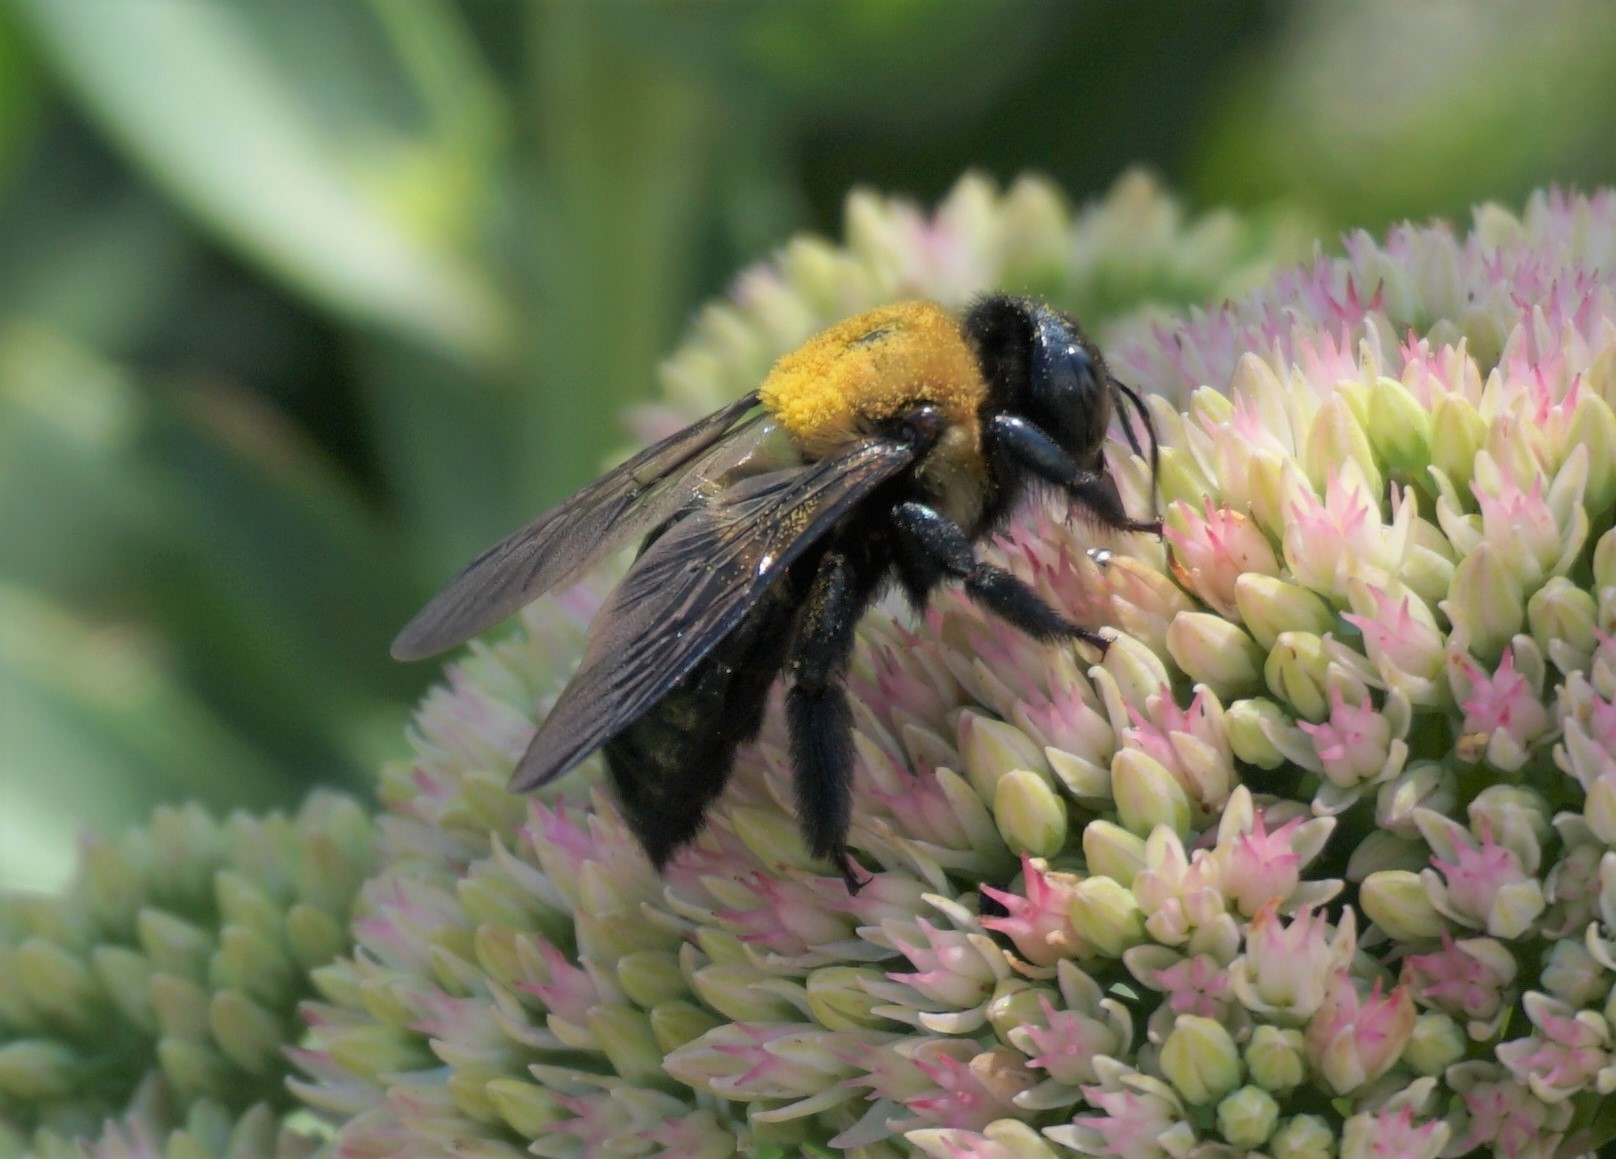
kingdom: Animalia
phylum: Arthropoda
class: Insecta
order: Hymenoptera
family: Apidae
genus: Xylocopa
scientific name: Xylocopa virginica
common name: Carpenter bee
